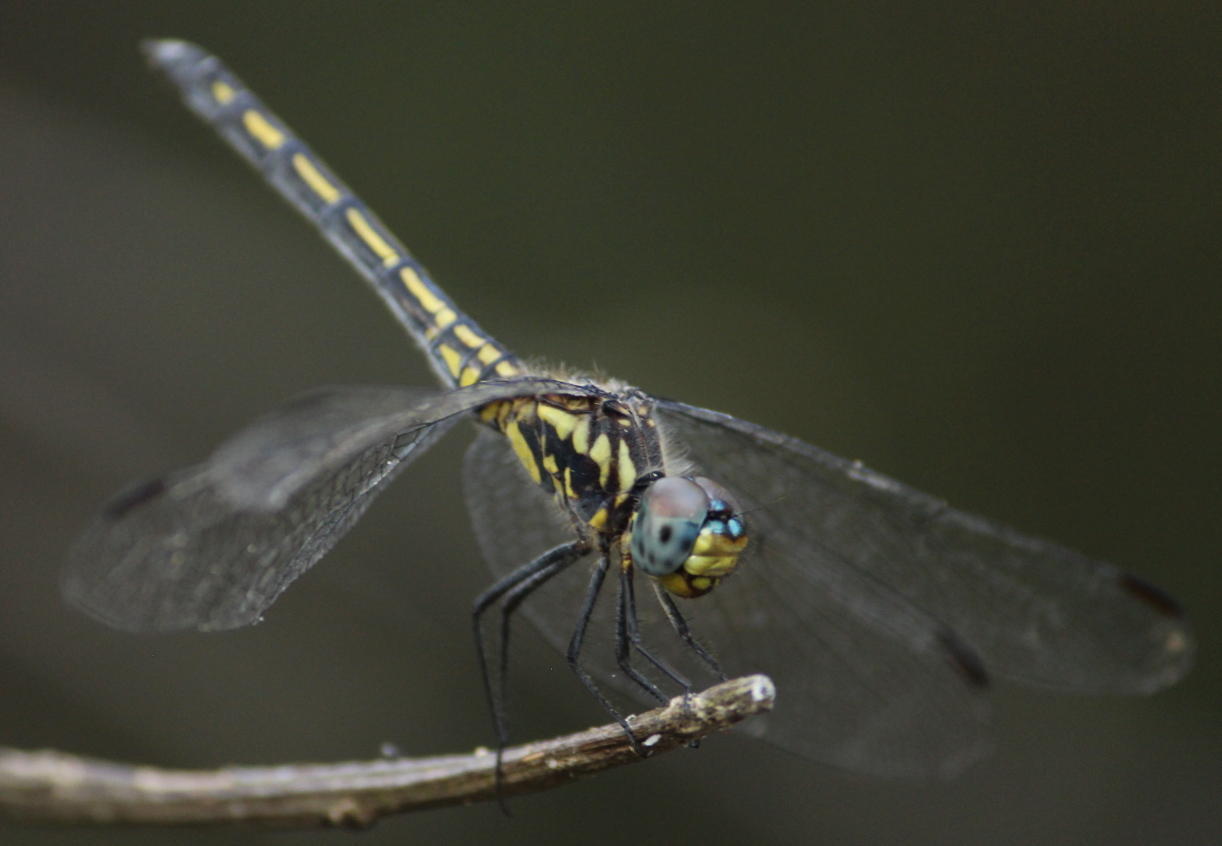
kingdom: Animalia
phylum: Arthropoda
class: Insecta
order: Odonata
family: Libellulidae
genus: Trithemis
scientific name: Trithemis stictica
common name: Jaunty dropwing
